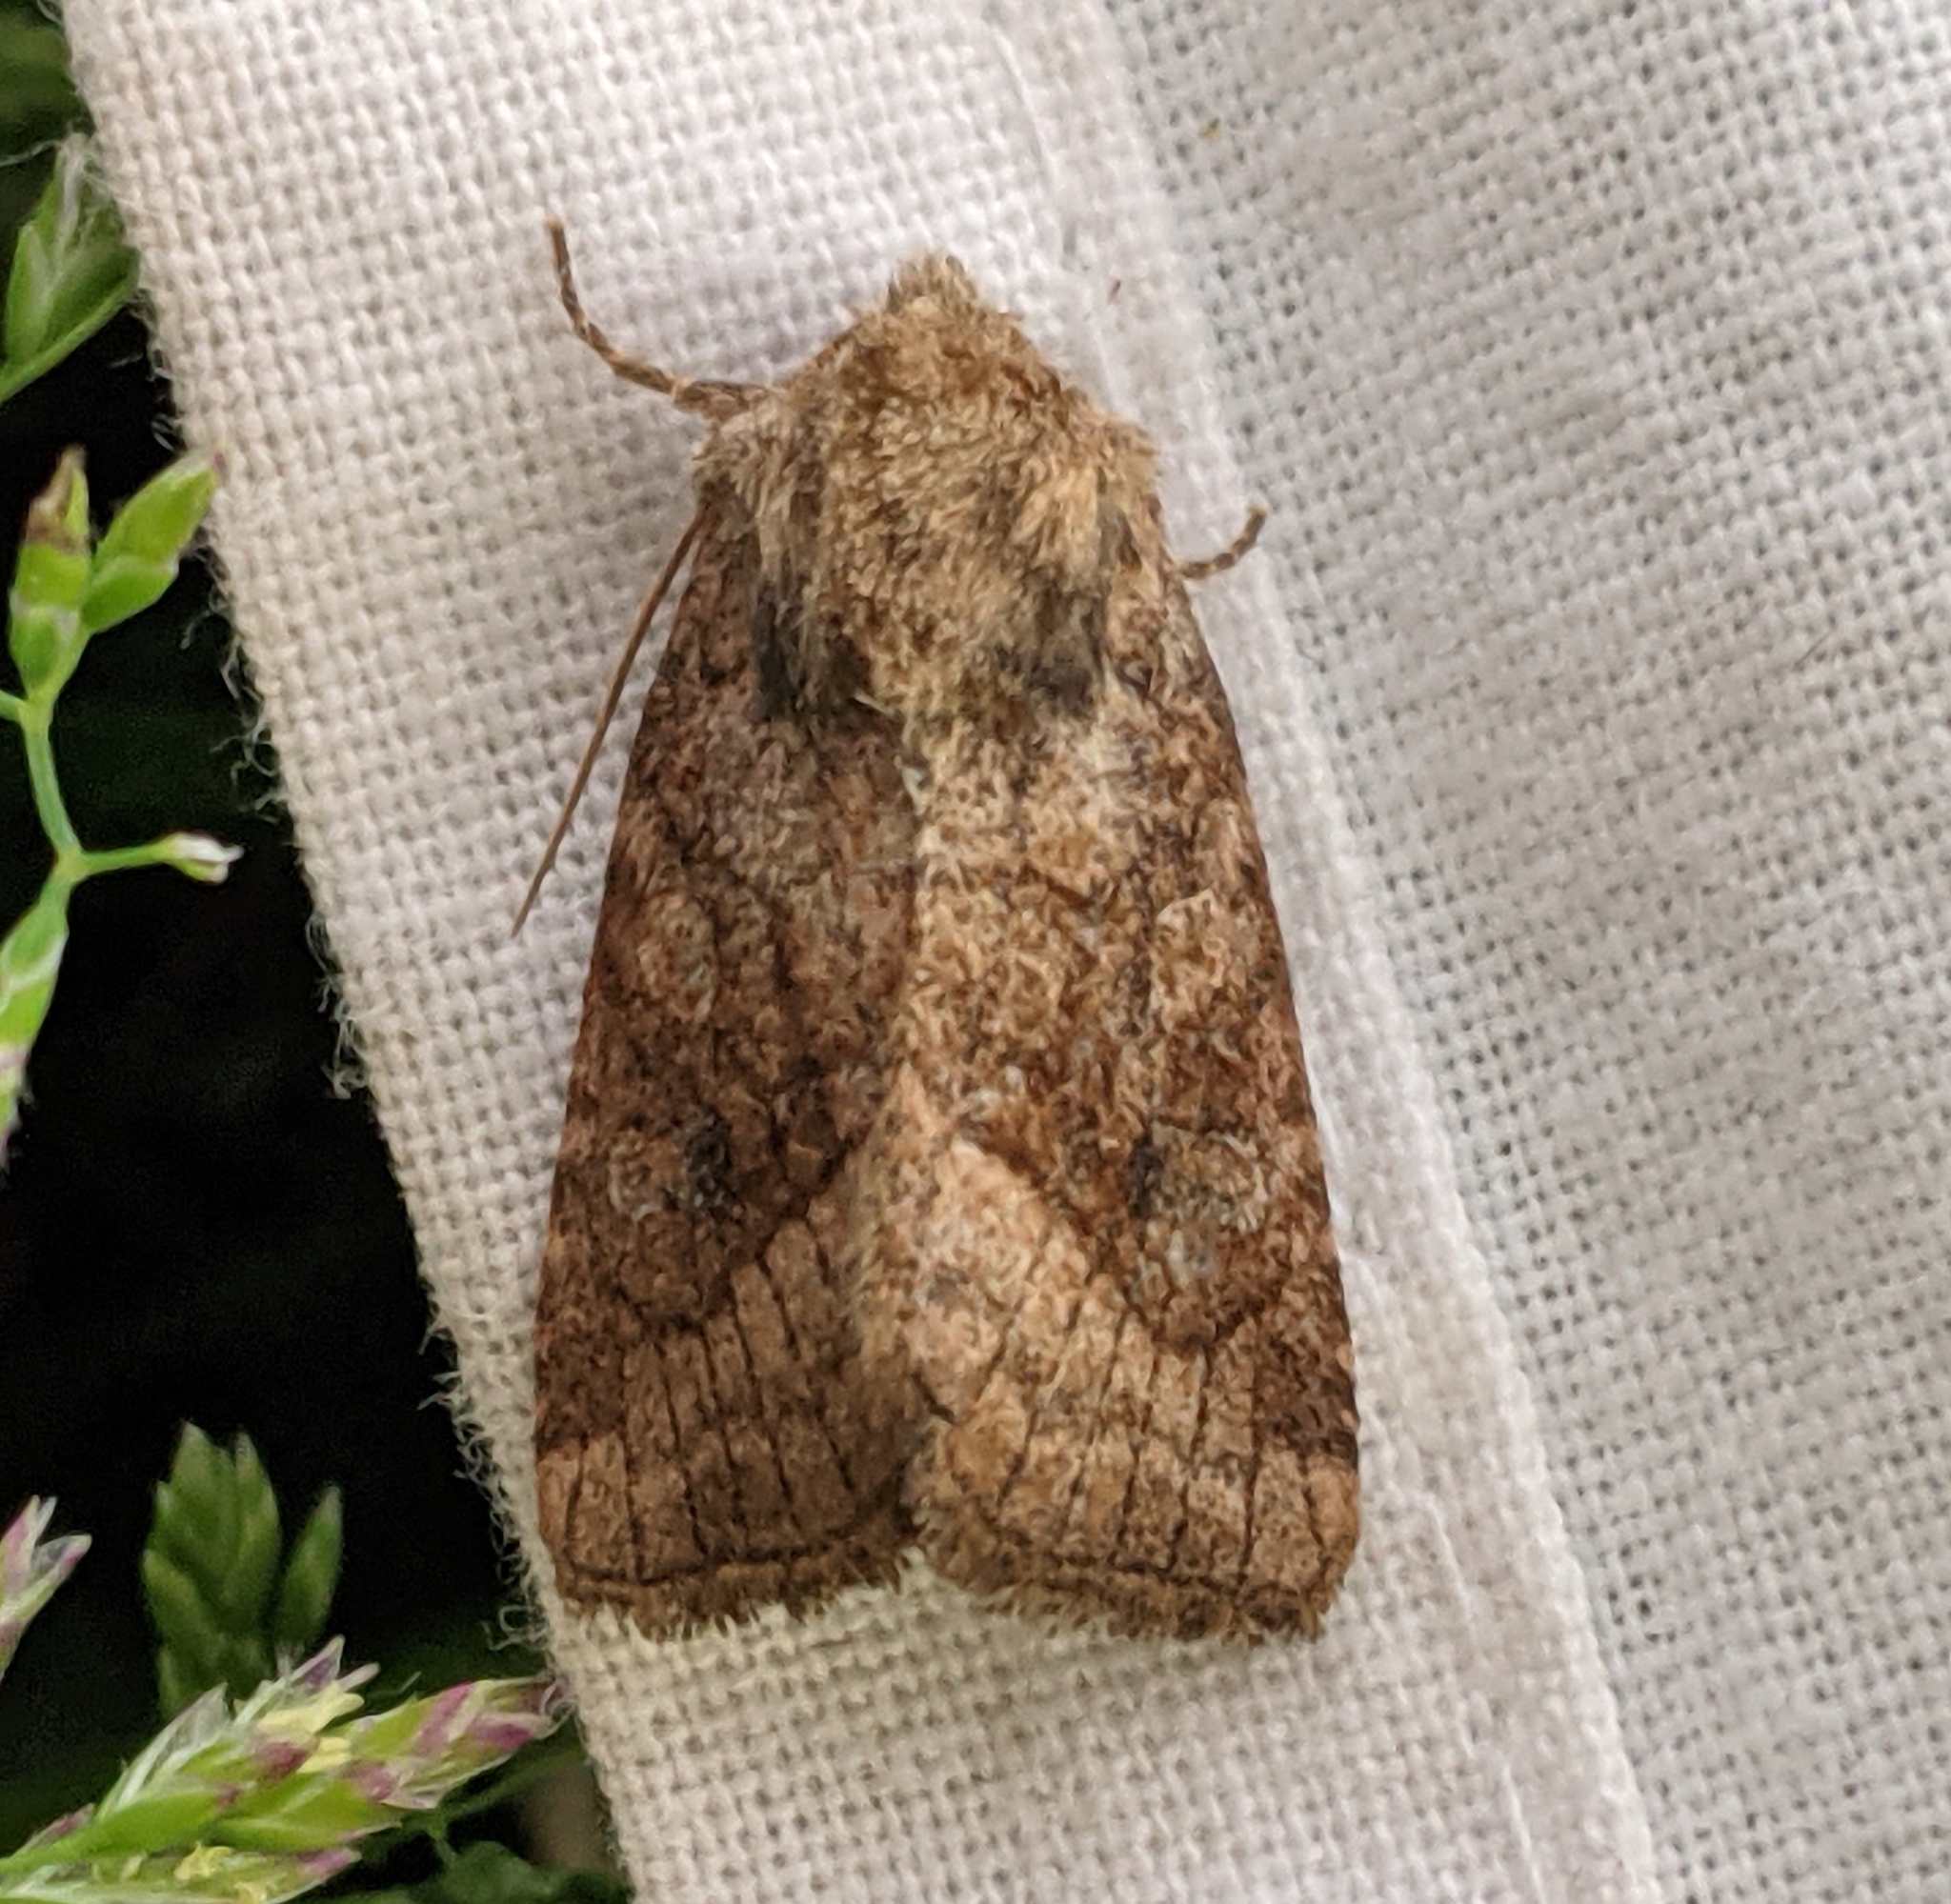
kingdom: Animalia
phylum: Arthropoda
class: Insecta
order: Lepidoptera
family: Noctuidae
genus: Lacinipolia
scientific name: Lacinipolia lorea
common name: Bridled arches moth
